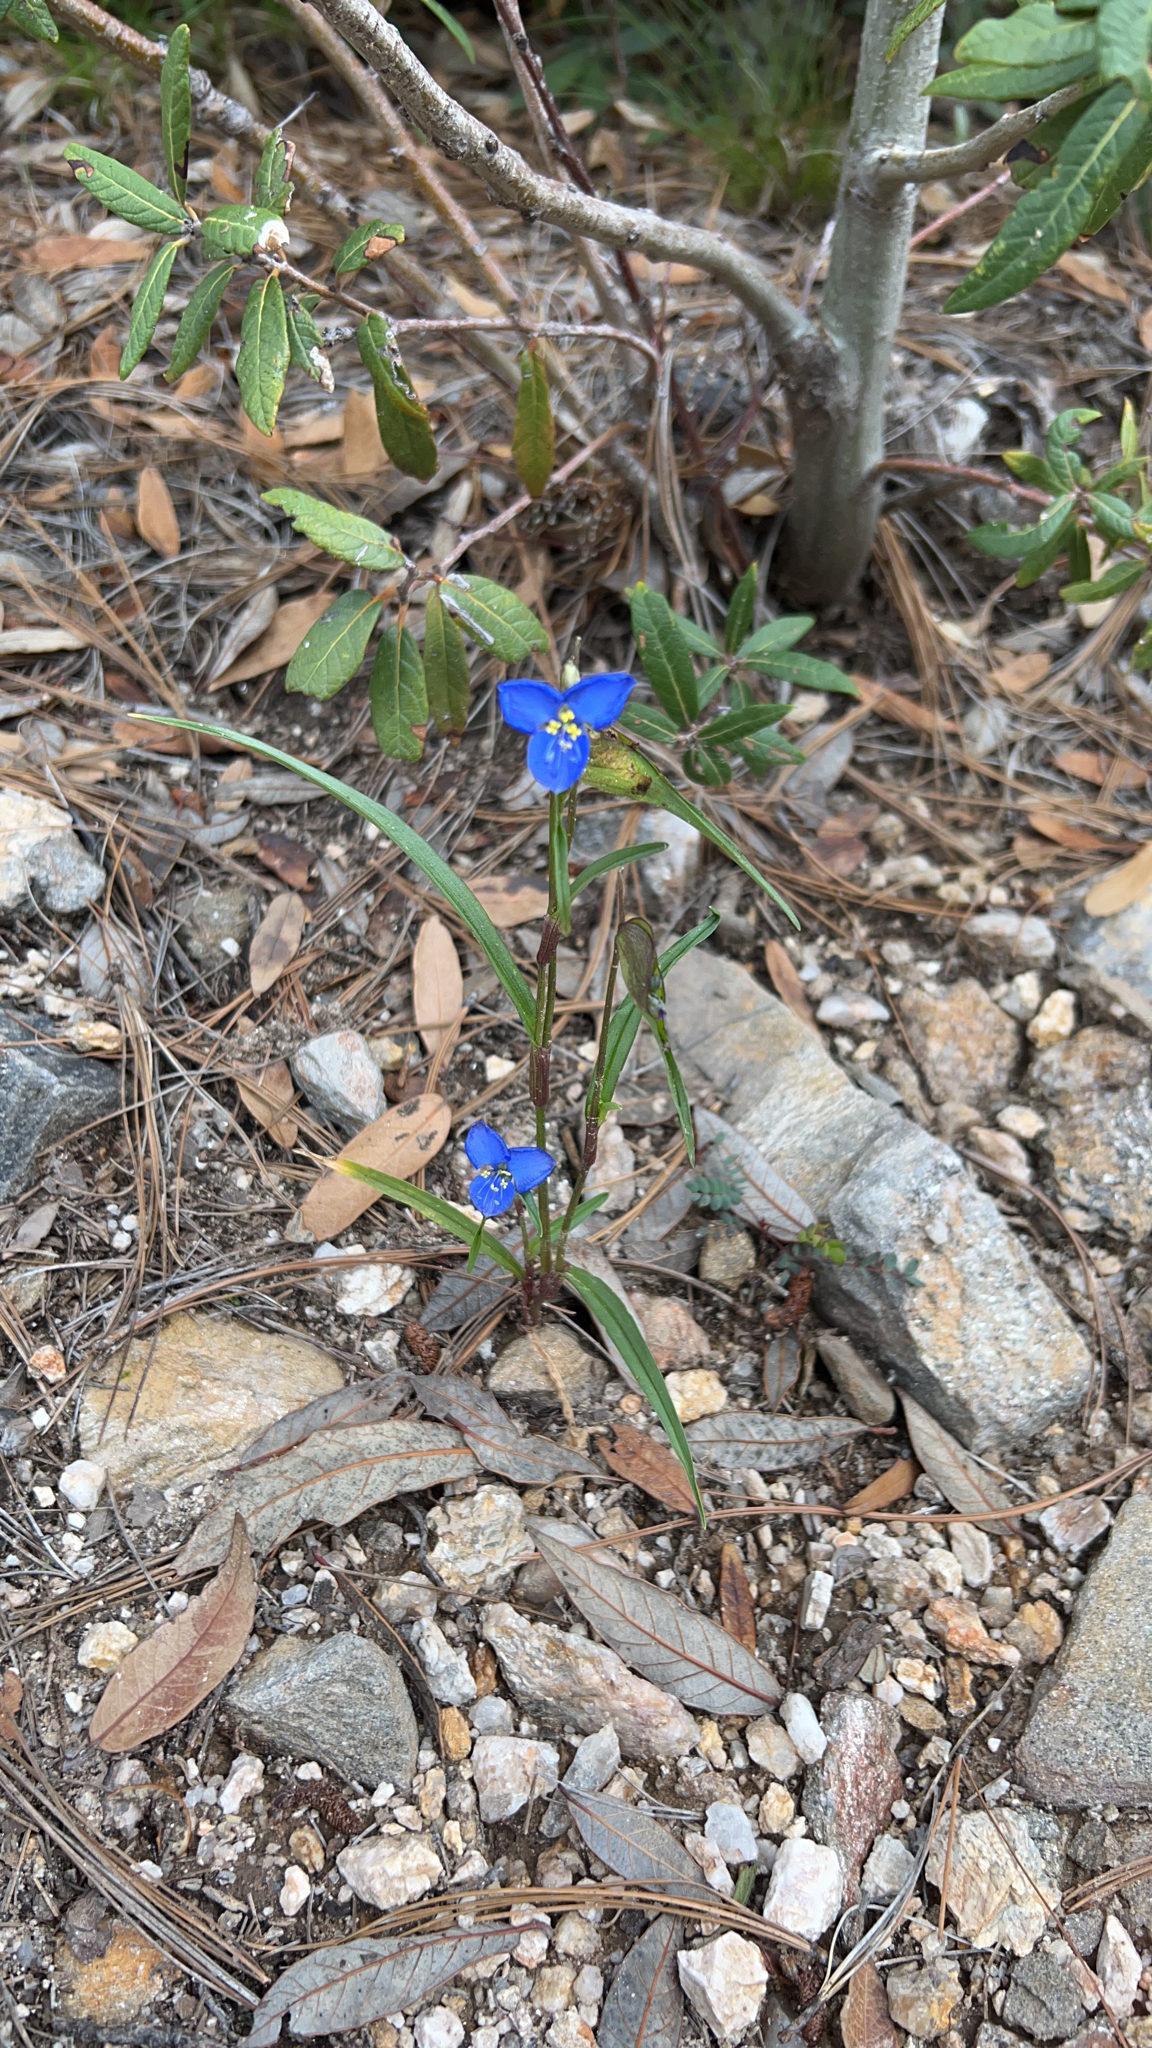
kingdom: Plantae
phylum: Tracheophyta
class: Liliopsida
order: Commelinales
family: Commelinaceae
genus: Commelina
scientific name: Commelina dianthifolia
